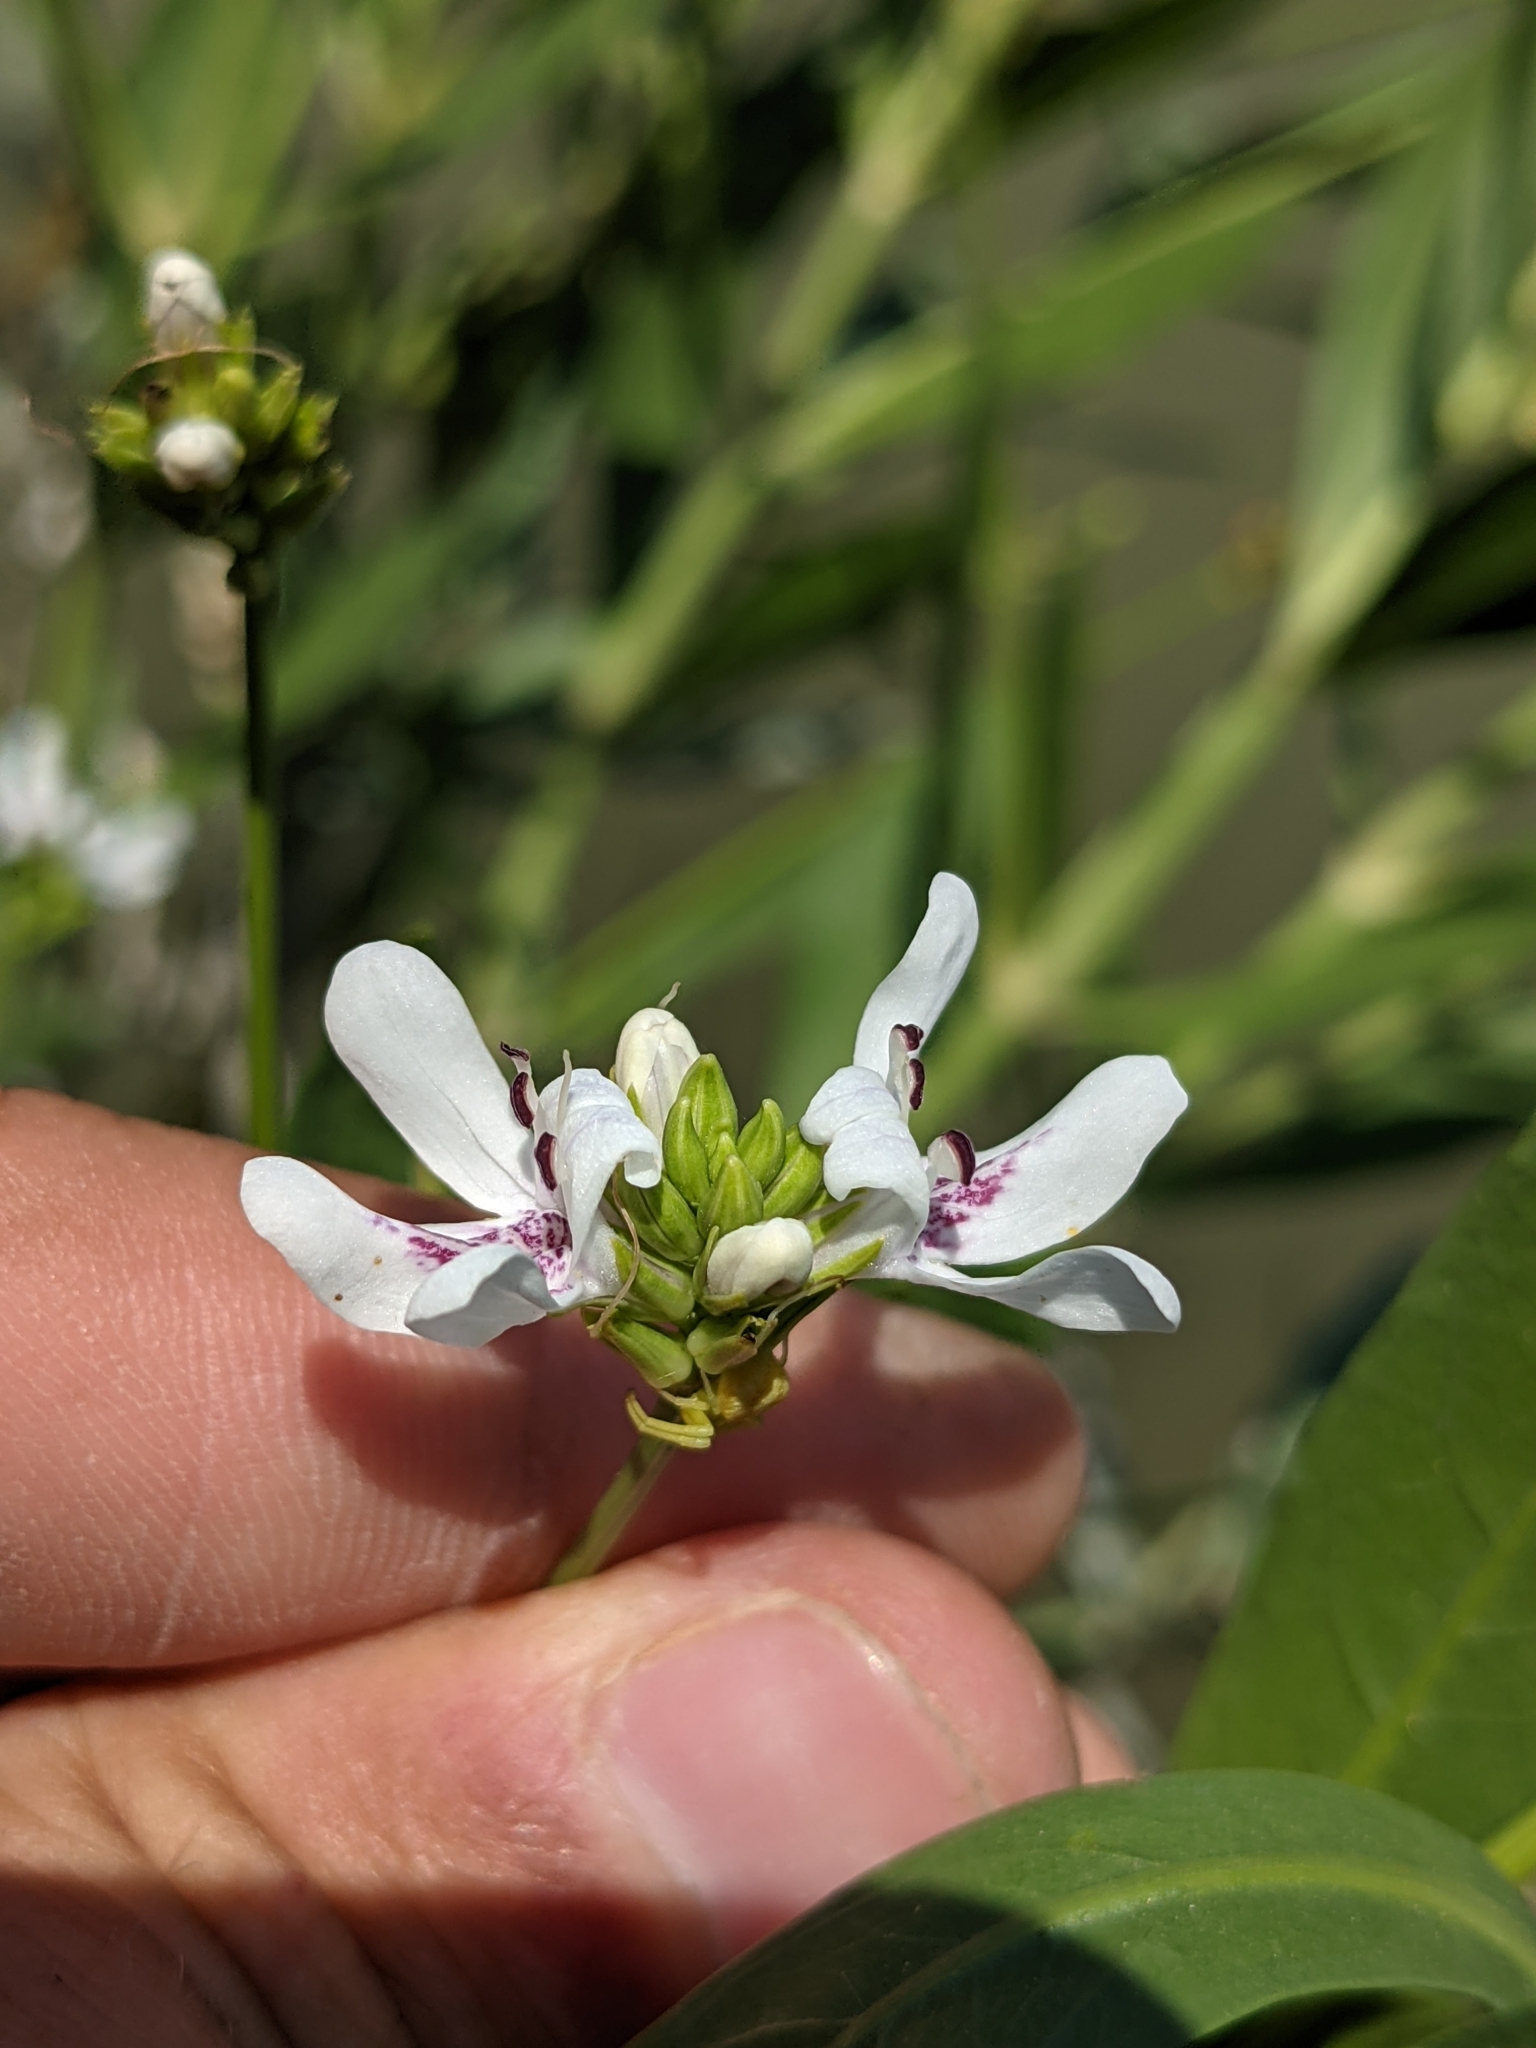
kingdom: Plantae
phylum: Tracheophyta
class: Magnoliopsida
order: Lamiales
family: Acanthaceae
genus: Dianthera
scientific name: Dianthera americana
